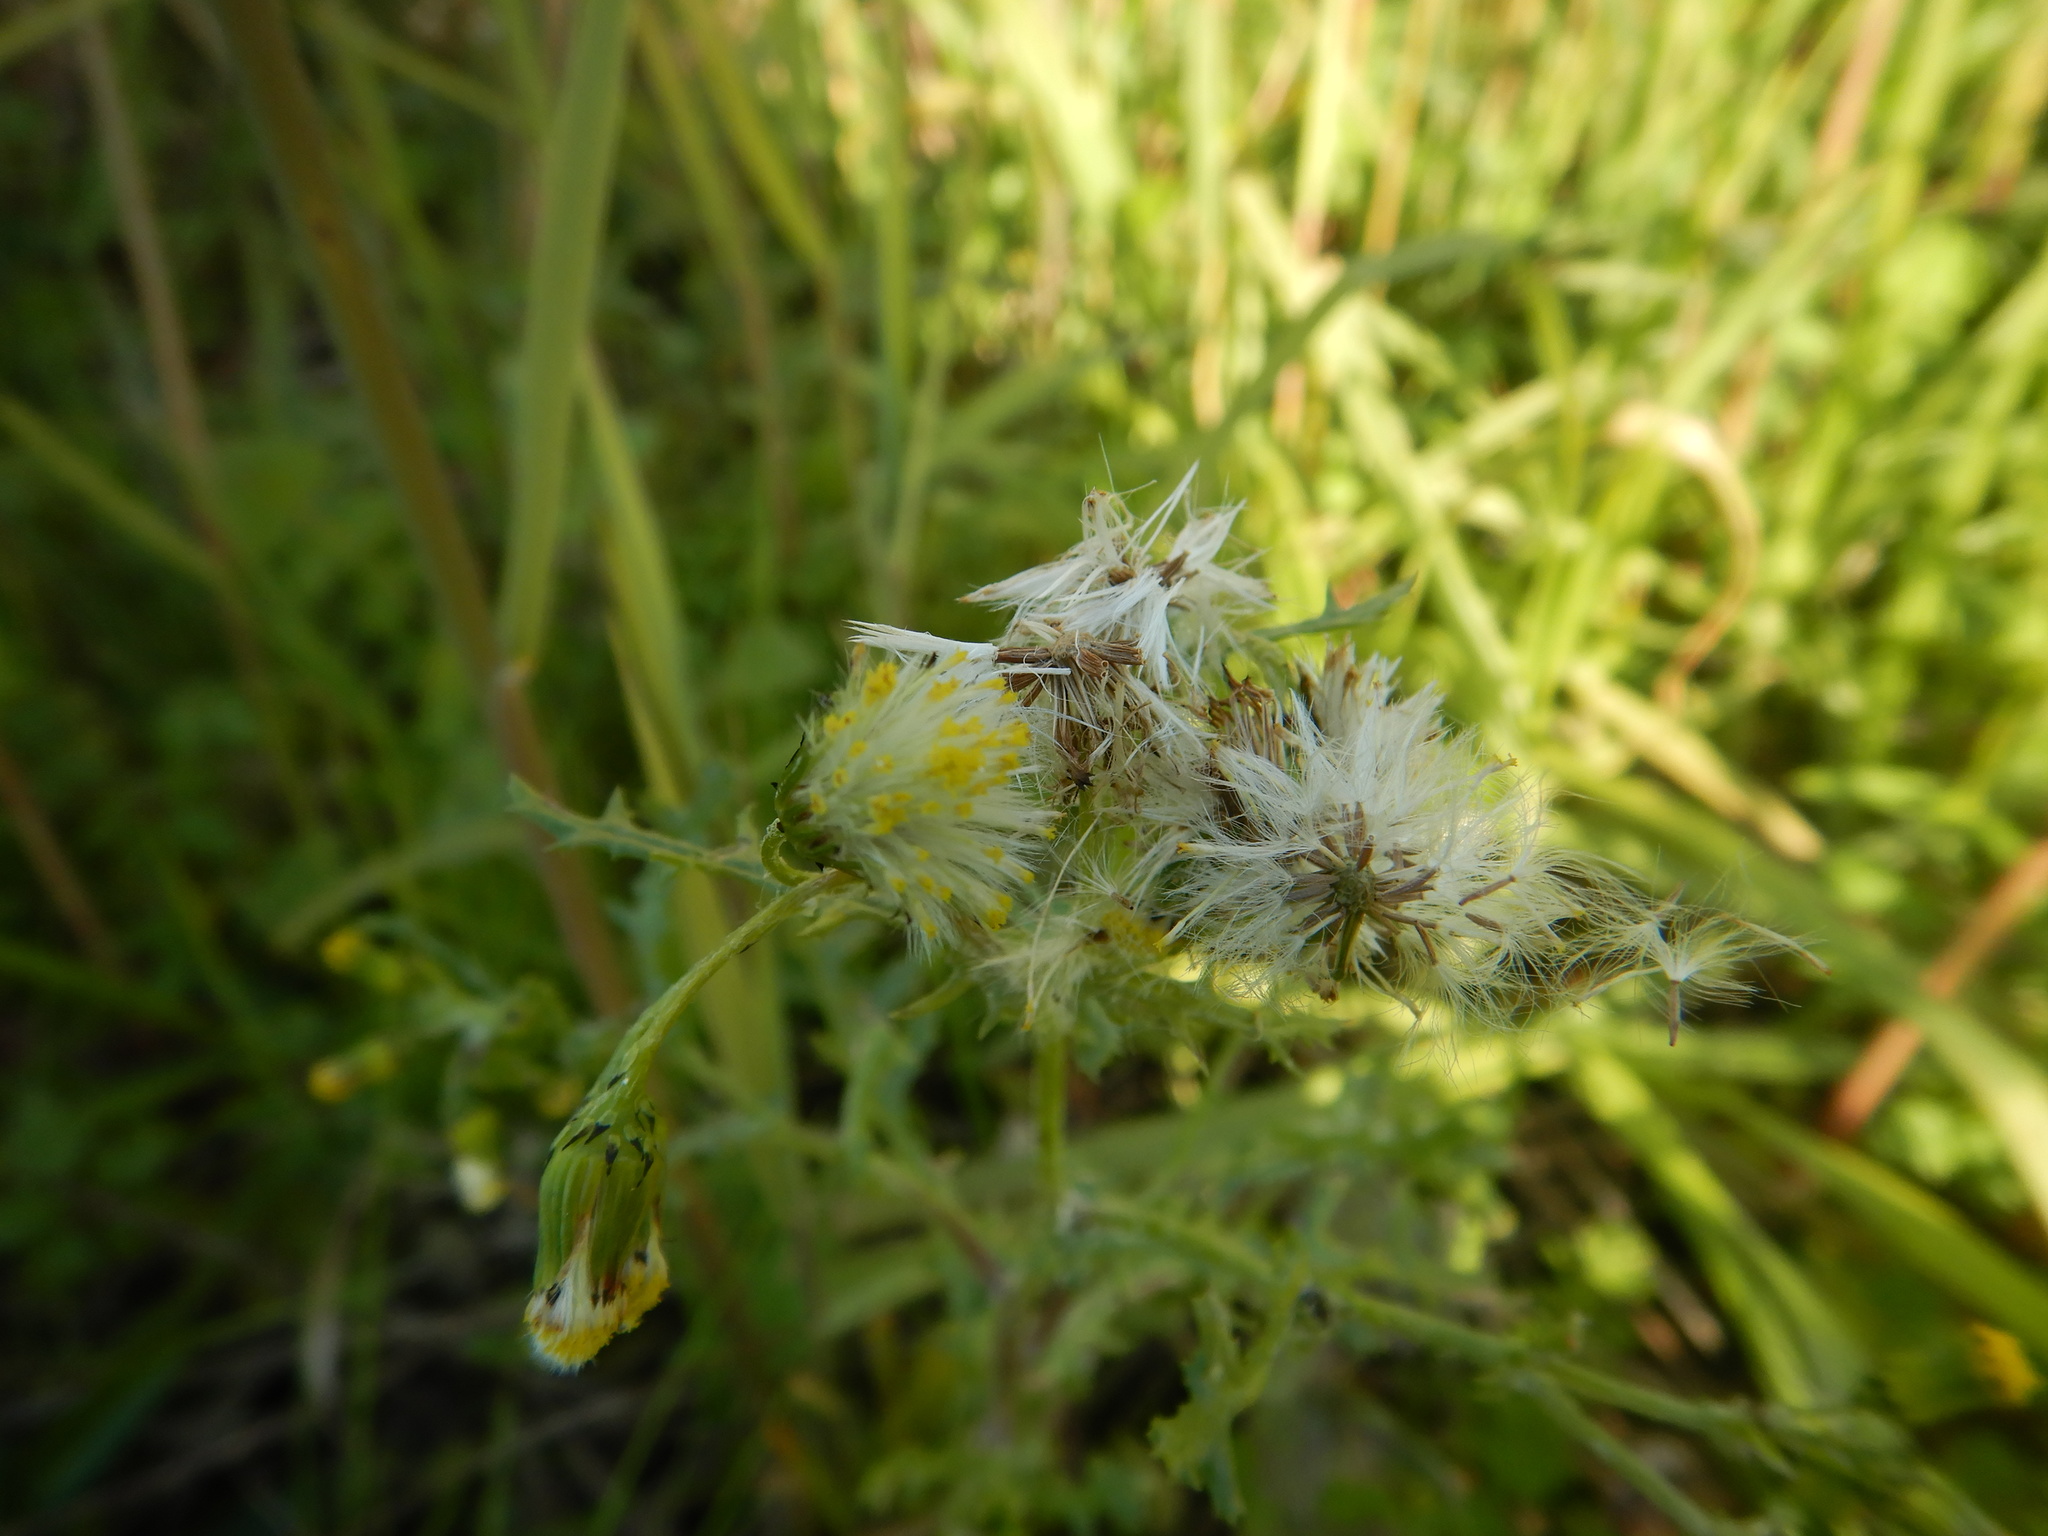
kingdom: Plantae
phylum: Tracheophyta
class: Magnoliopsida
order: Asterales
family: Asteraceae
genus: Senecio
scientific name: Senecio vulgaris
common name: Old-man-in-the-spring
